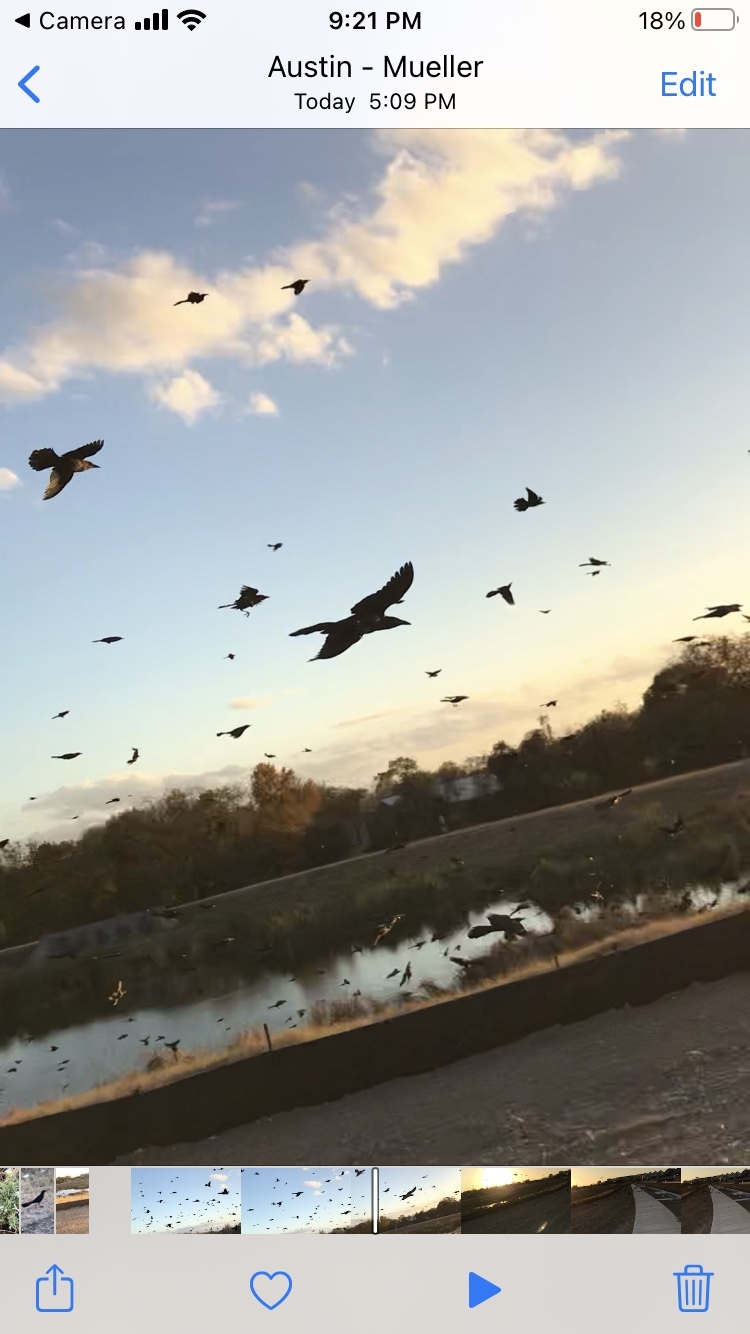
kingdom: Animalia
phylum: Chordata
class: Aves
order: Passeriformes
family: Icteridae
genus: Quiscalus
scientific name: Quiscalus mexicanus
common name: Great-tailed grackle
